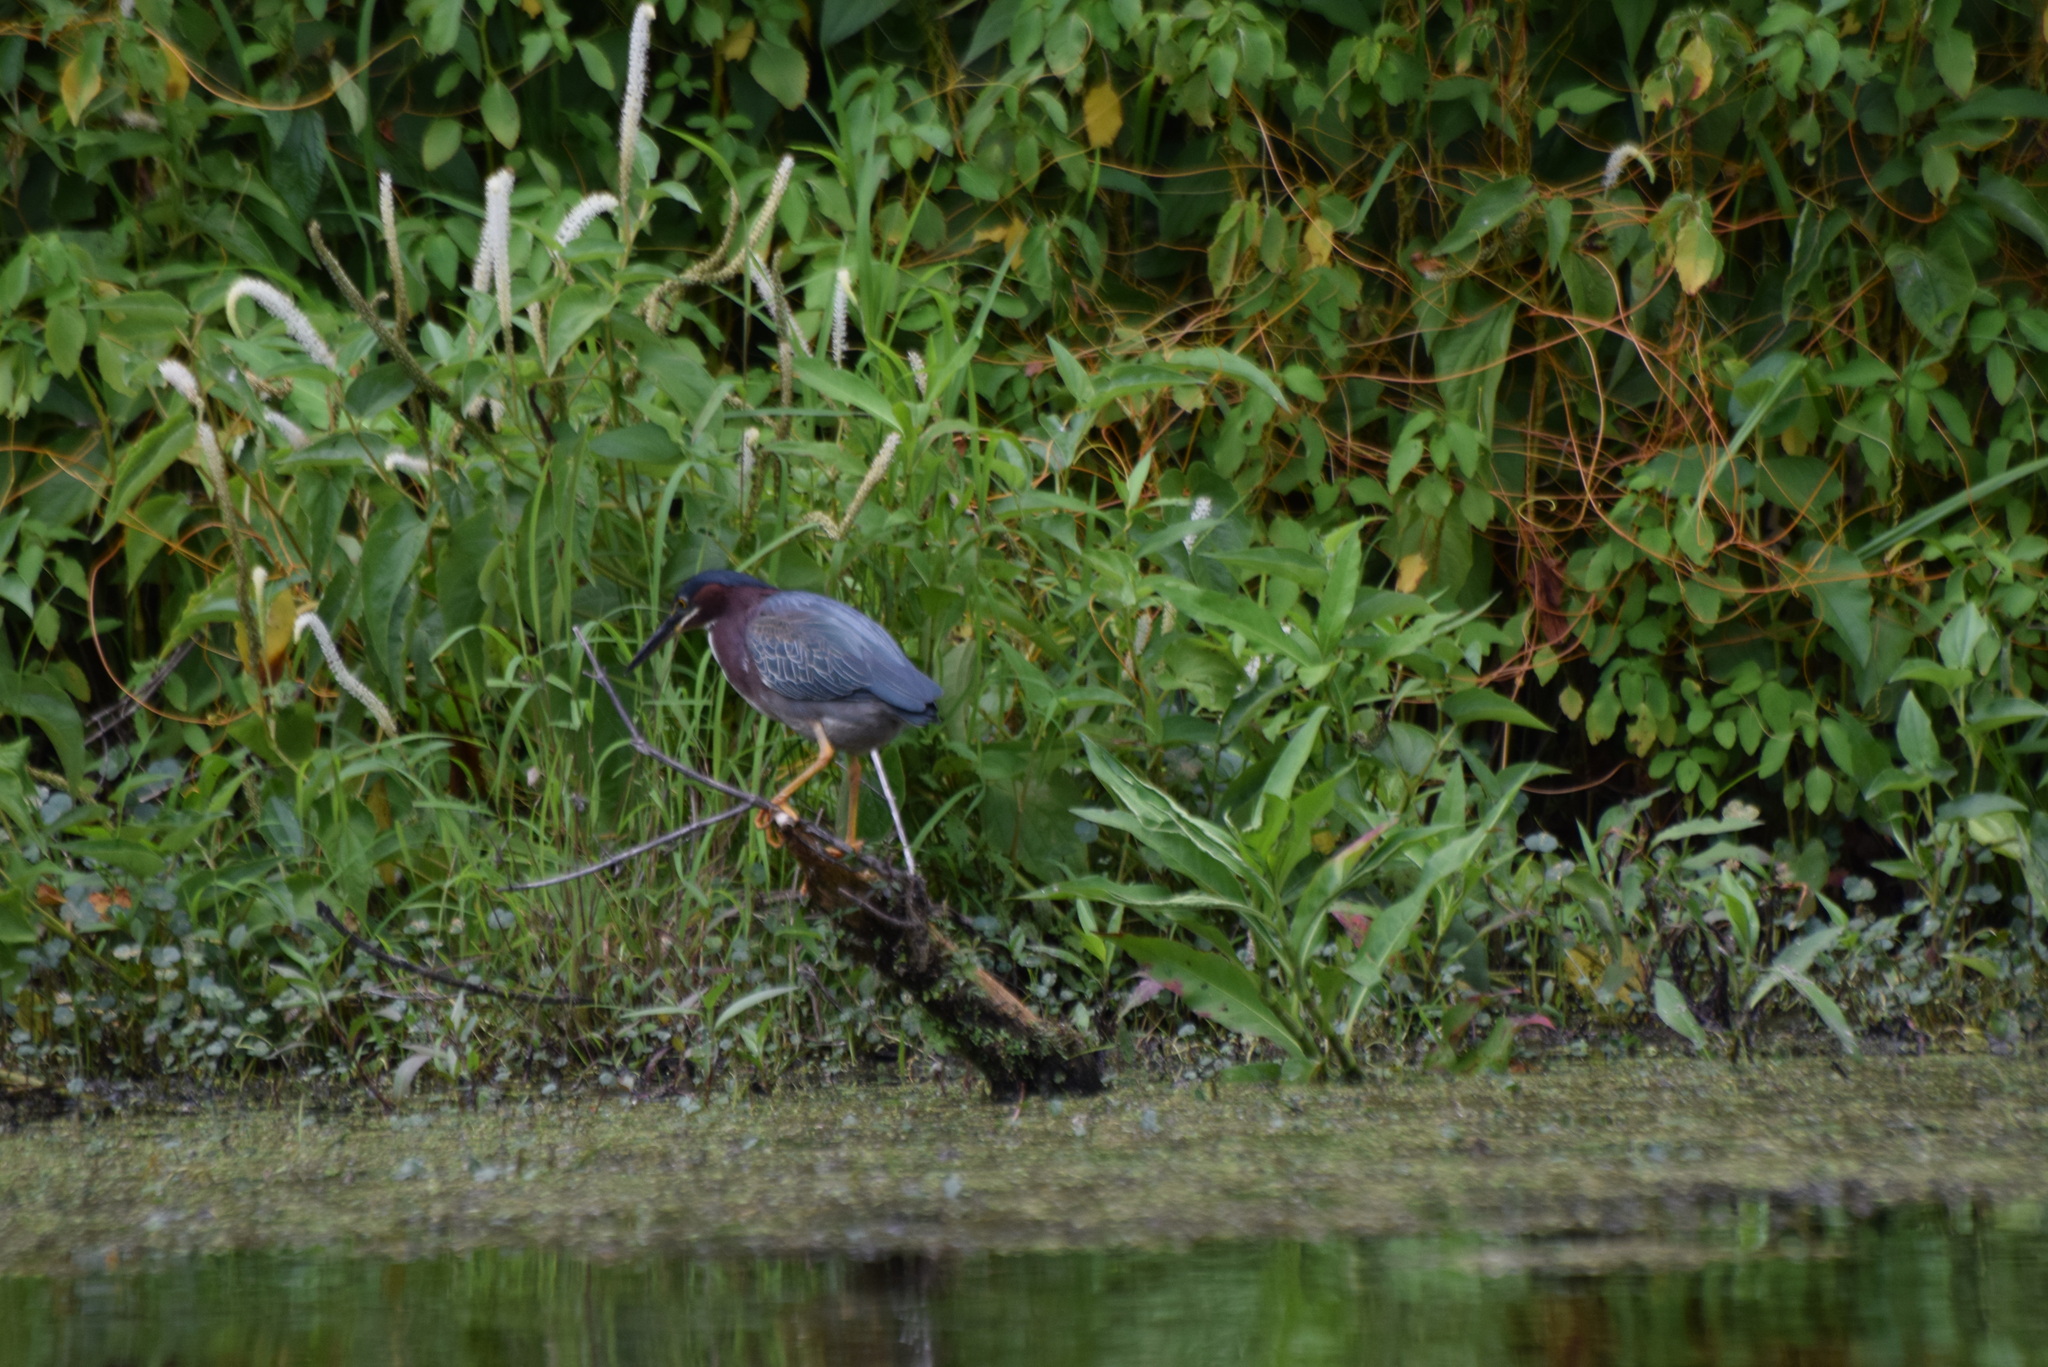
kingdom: Animalia
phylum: Chordata
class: Aves
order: Pelecaniformes
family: Ardeidae
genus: Butorides
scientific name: Butorides virescens
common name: Green heron
